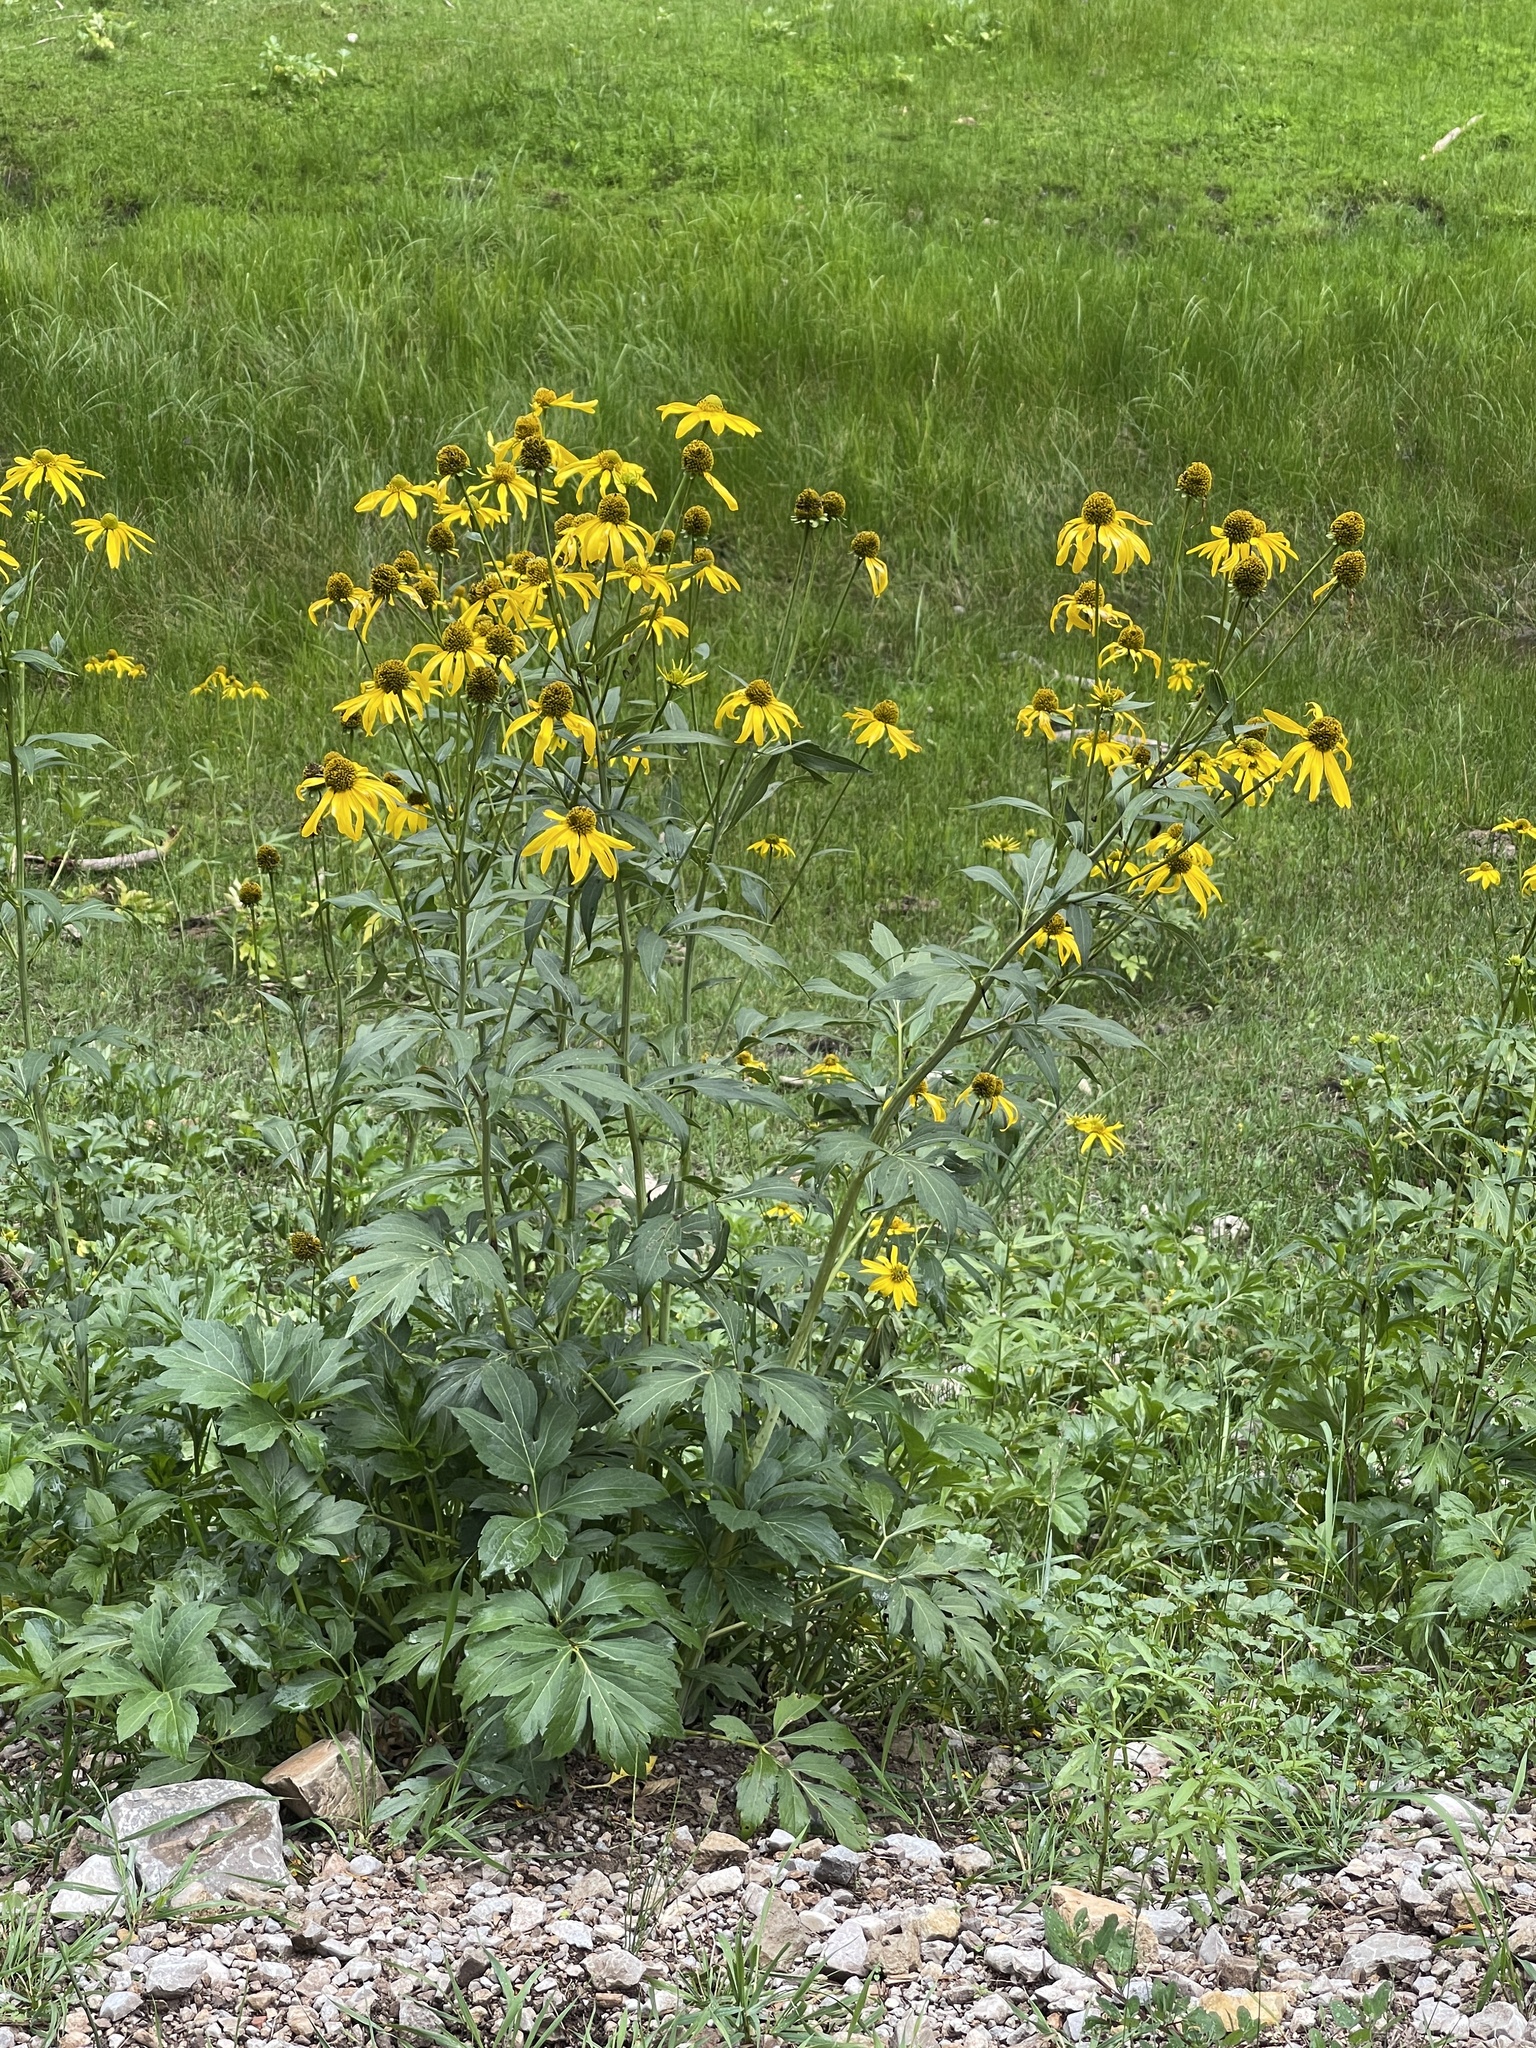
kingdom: Plantae
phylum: Tracheophyta
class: Magnoliopsida
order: Asterales
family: Asteraceae
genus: Rudbeckia
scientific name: Rudbeckia laciniata
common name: Coneflower
